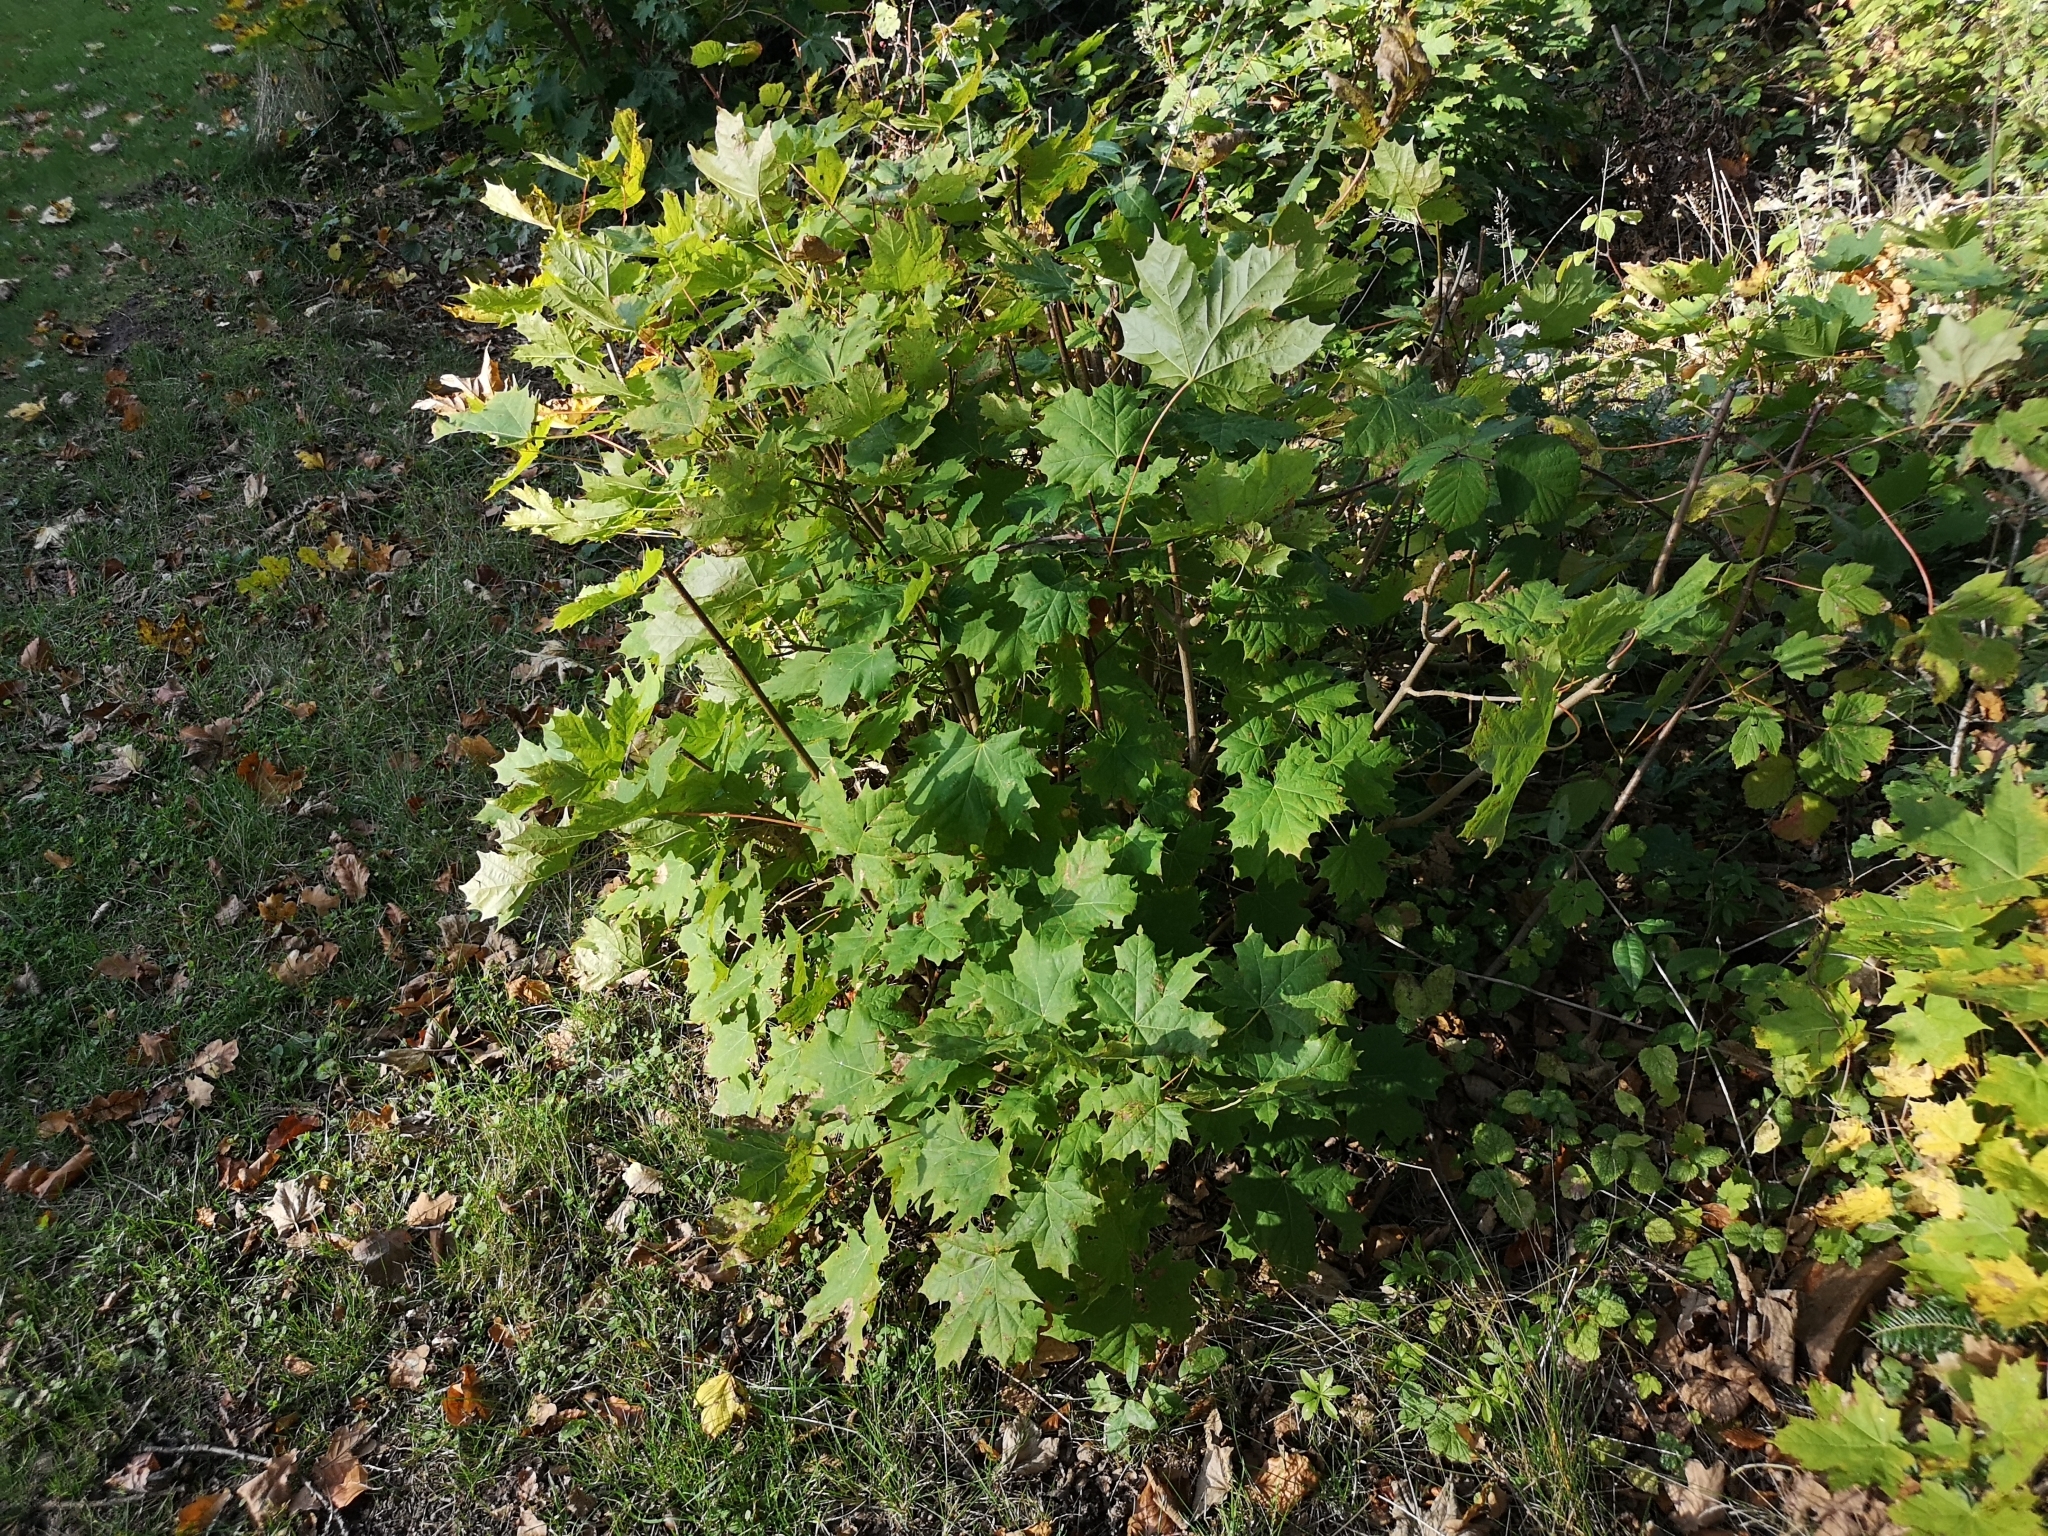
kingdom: Plantae
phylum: Tracheophyta
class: Magnoliopsida
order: Sapindales
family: Sapindaceae
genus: Acer
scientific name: Acer platanoides
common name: Norway maple
